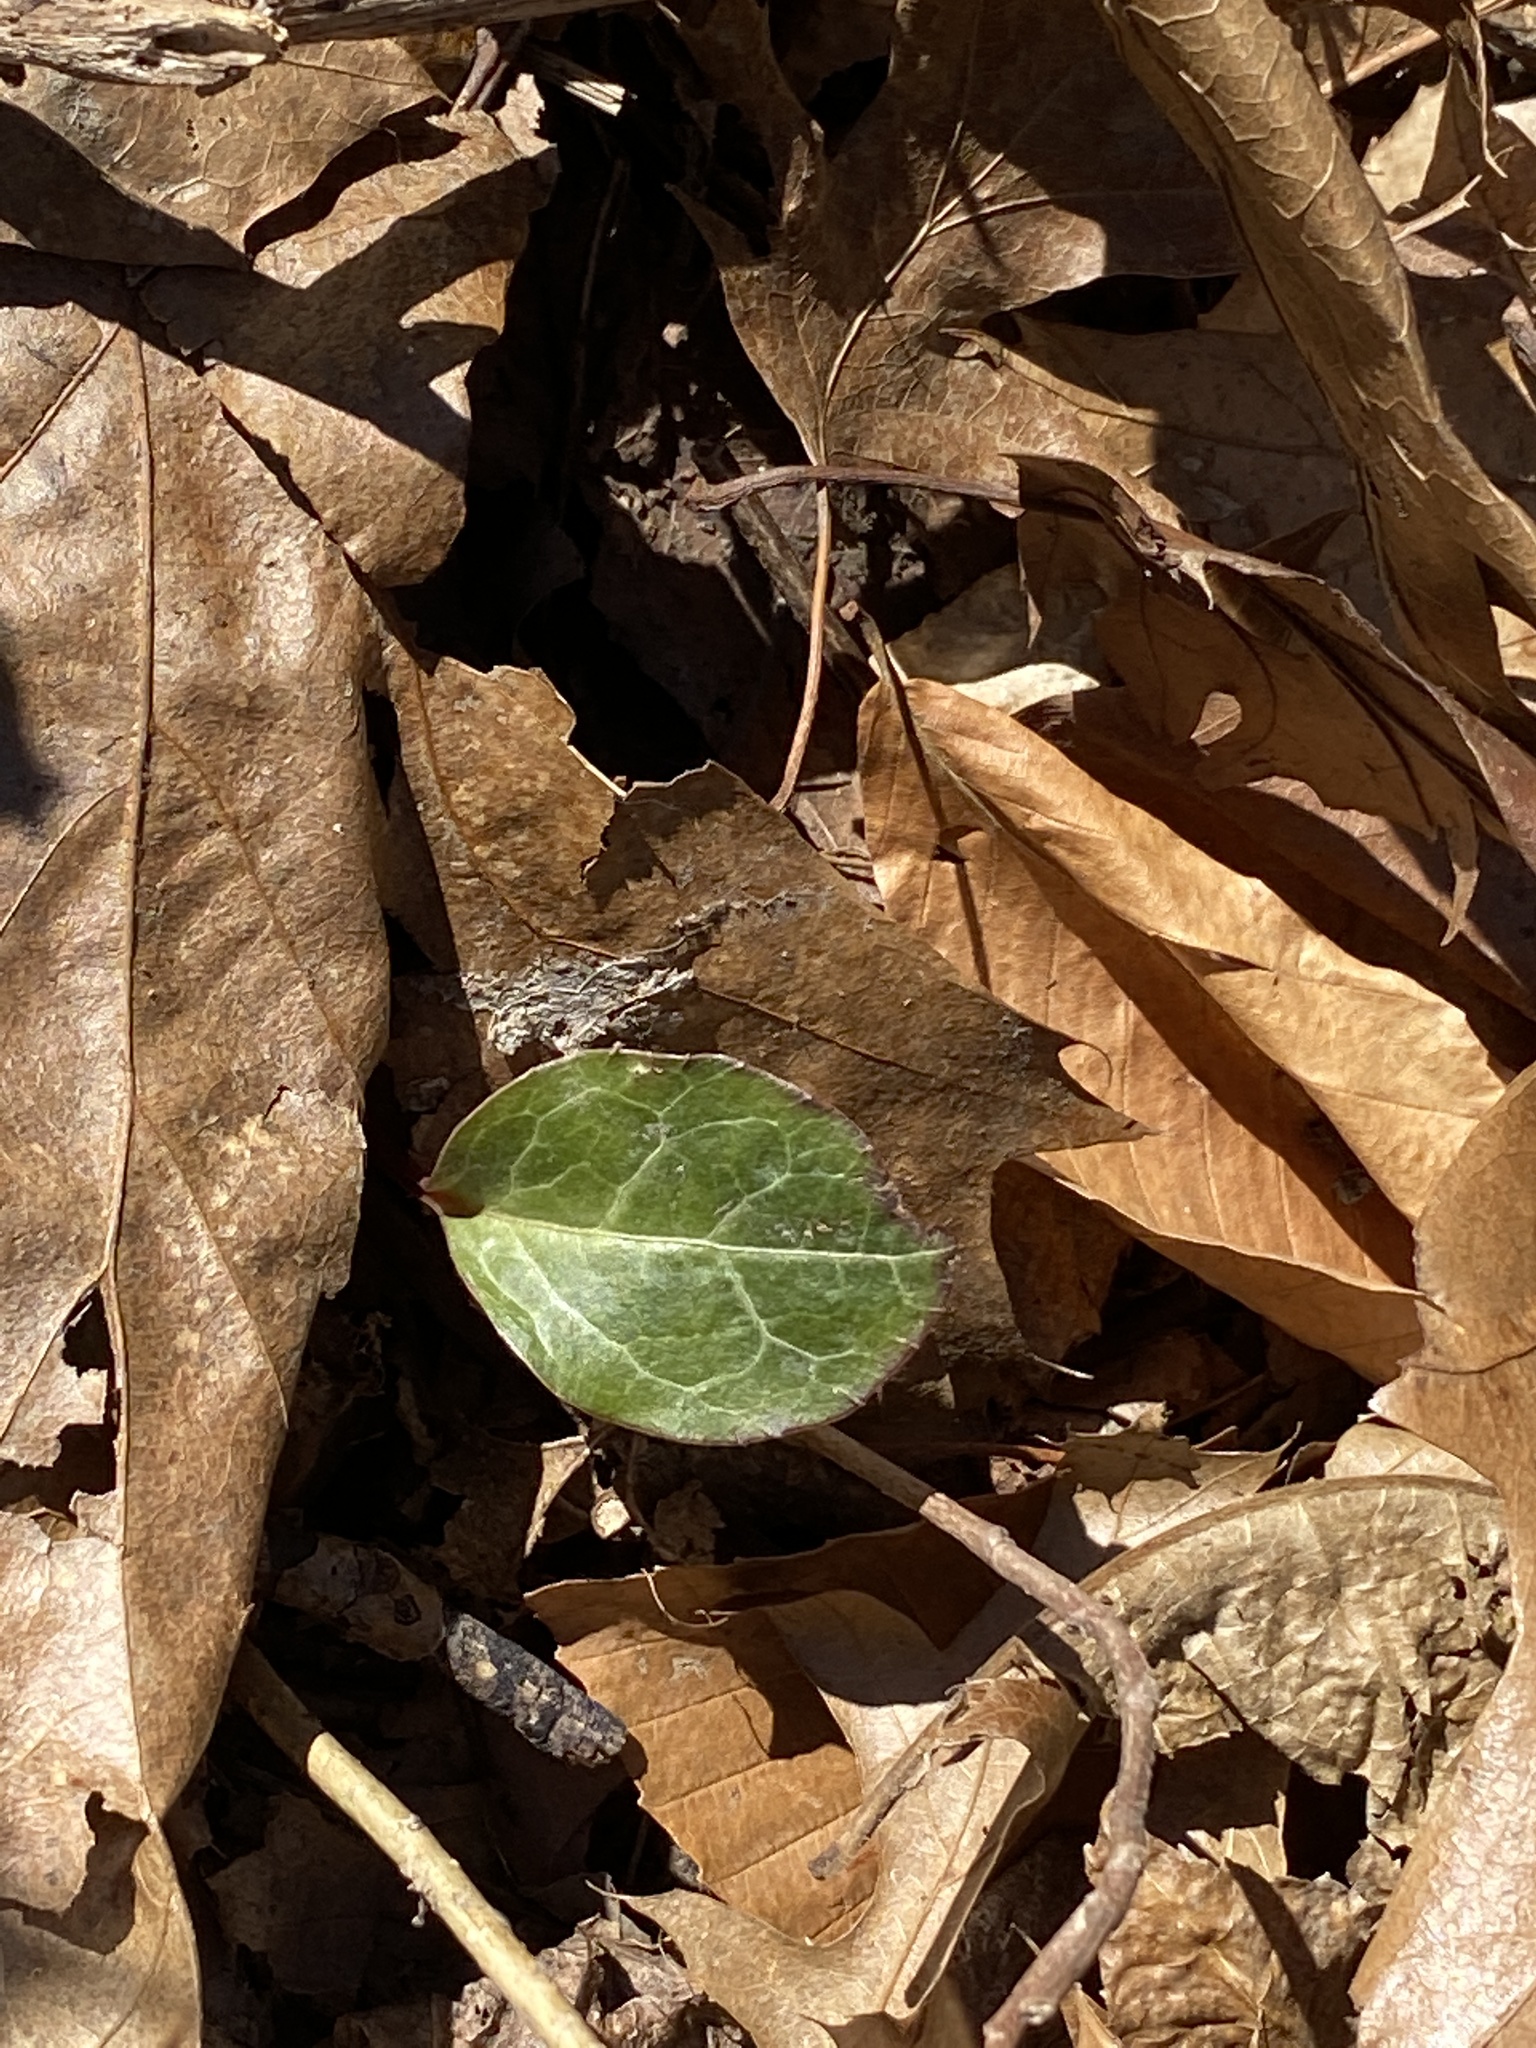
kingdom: Plantae
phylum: Tracheophyta
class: Magnoliopsida
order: Ericales
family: Ericaceae
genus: Pyrola
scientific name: Pyrola americana
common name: American wintergreen
